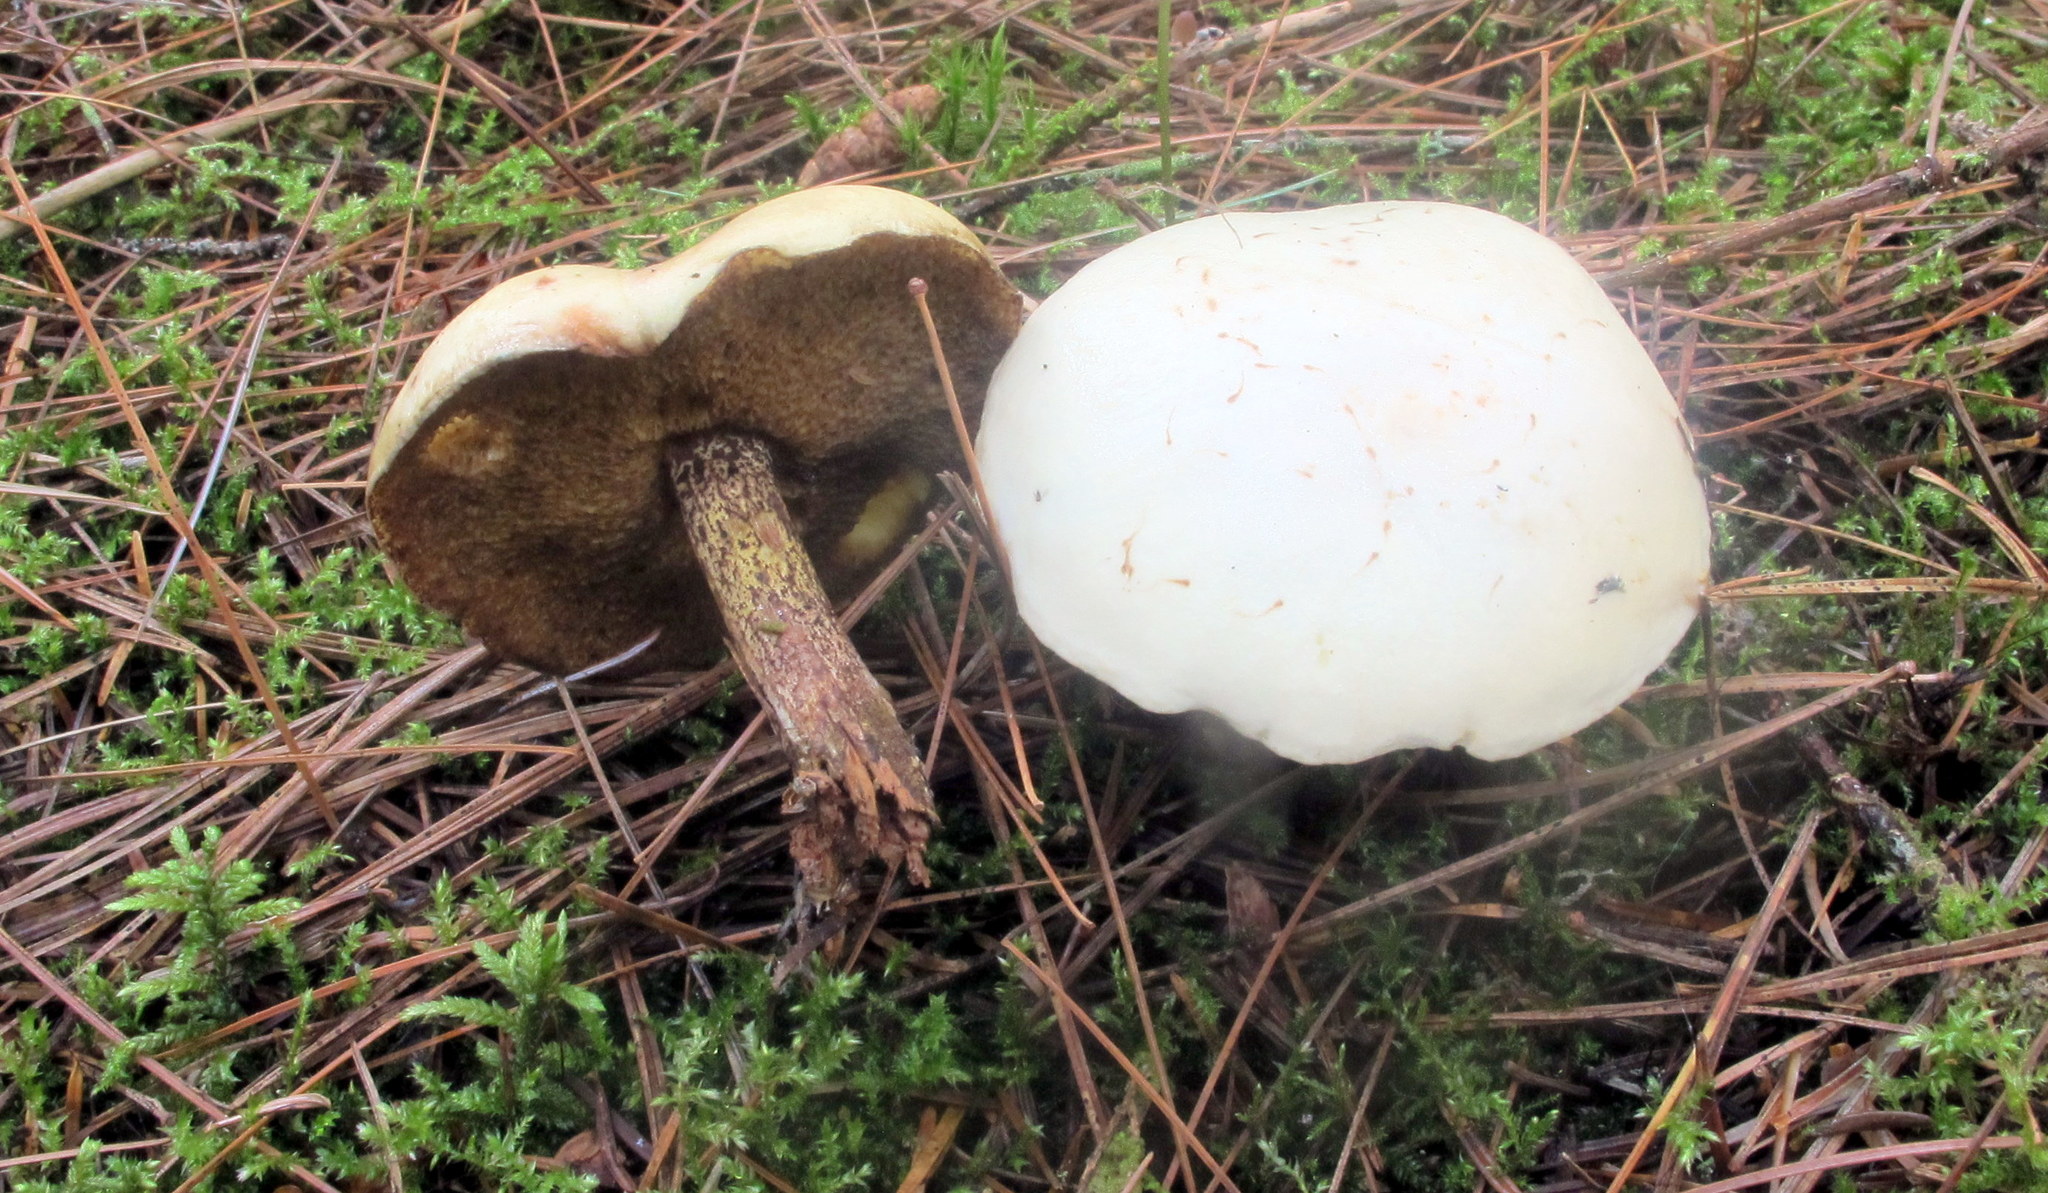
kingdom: Fungi
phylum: Basidiomycota
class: Agaricomycetes
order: Boletales
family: Suillaceae
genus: Suillus
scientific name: Suillus placidus
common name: Slippery white bolete
